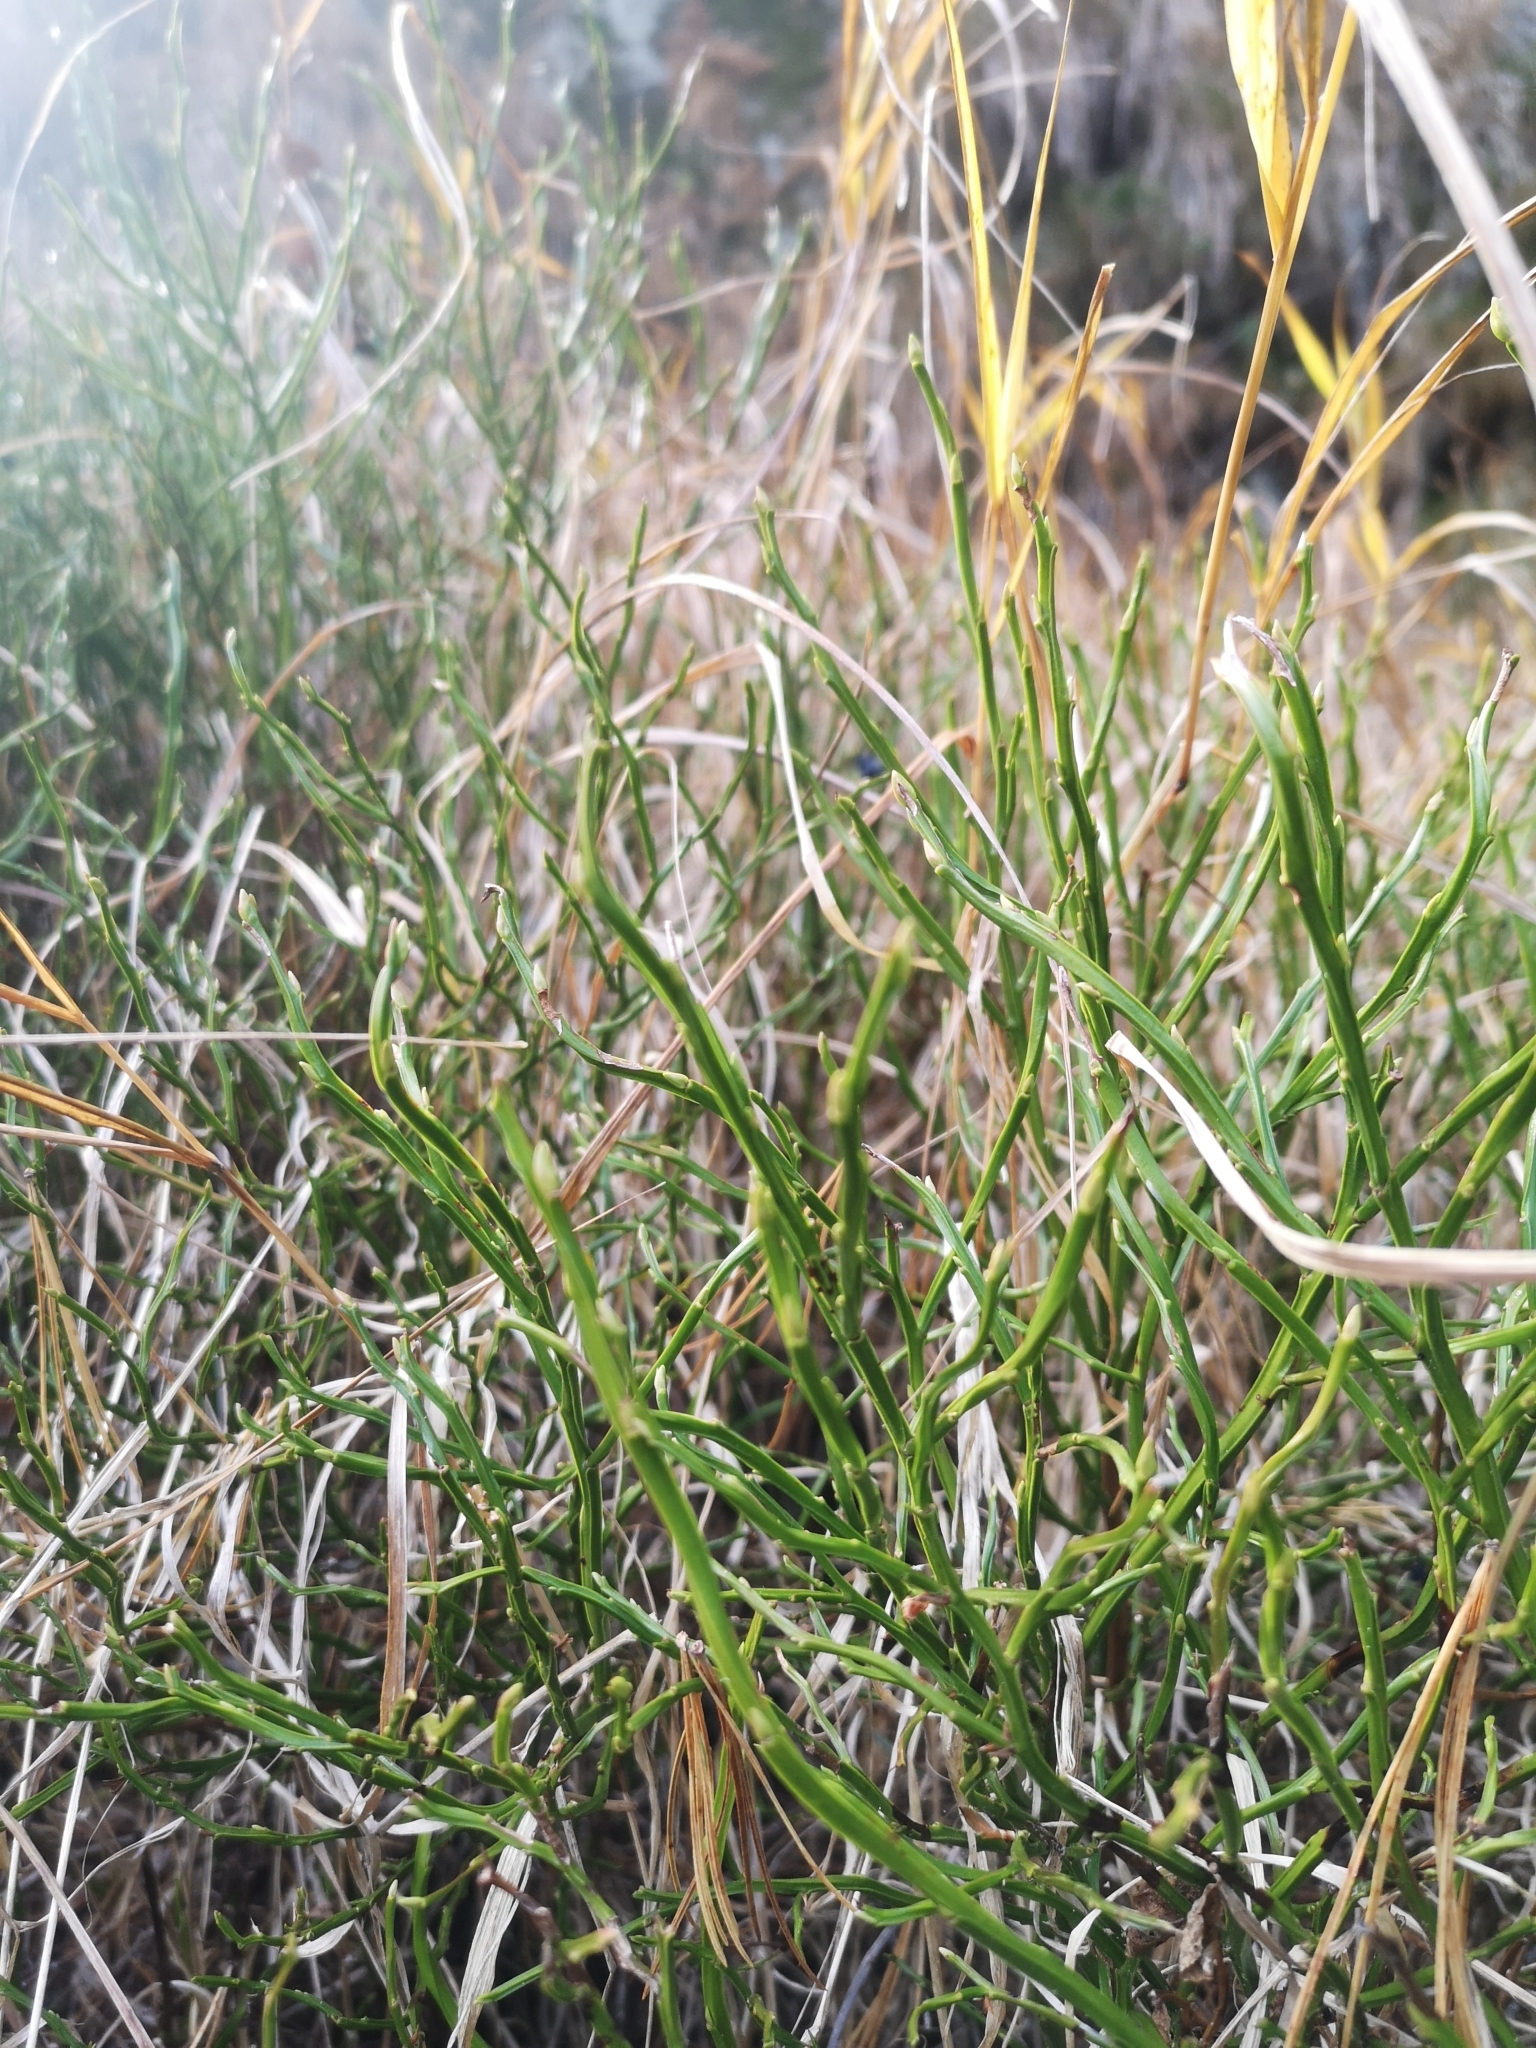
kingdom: Plantae
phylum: Tracheophyta
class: Magnoliopsida
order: Ericales
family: Ericaceae
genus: Vaccinium
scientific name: Vaccinium myrtillus
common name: Bilberry
